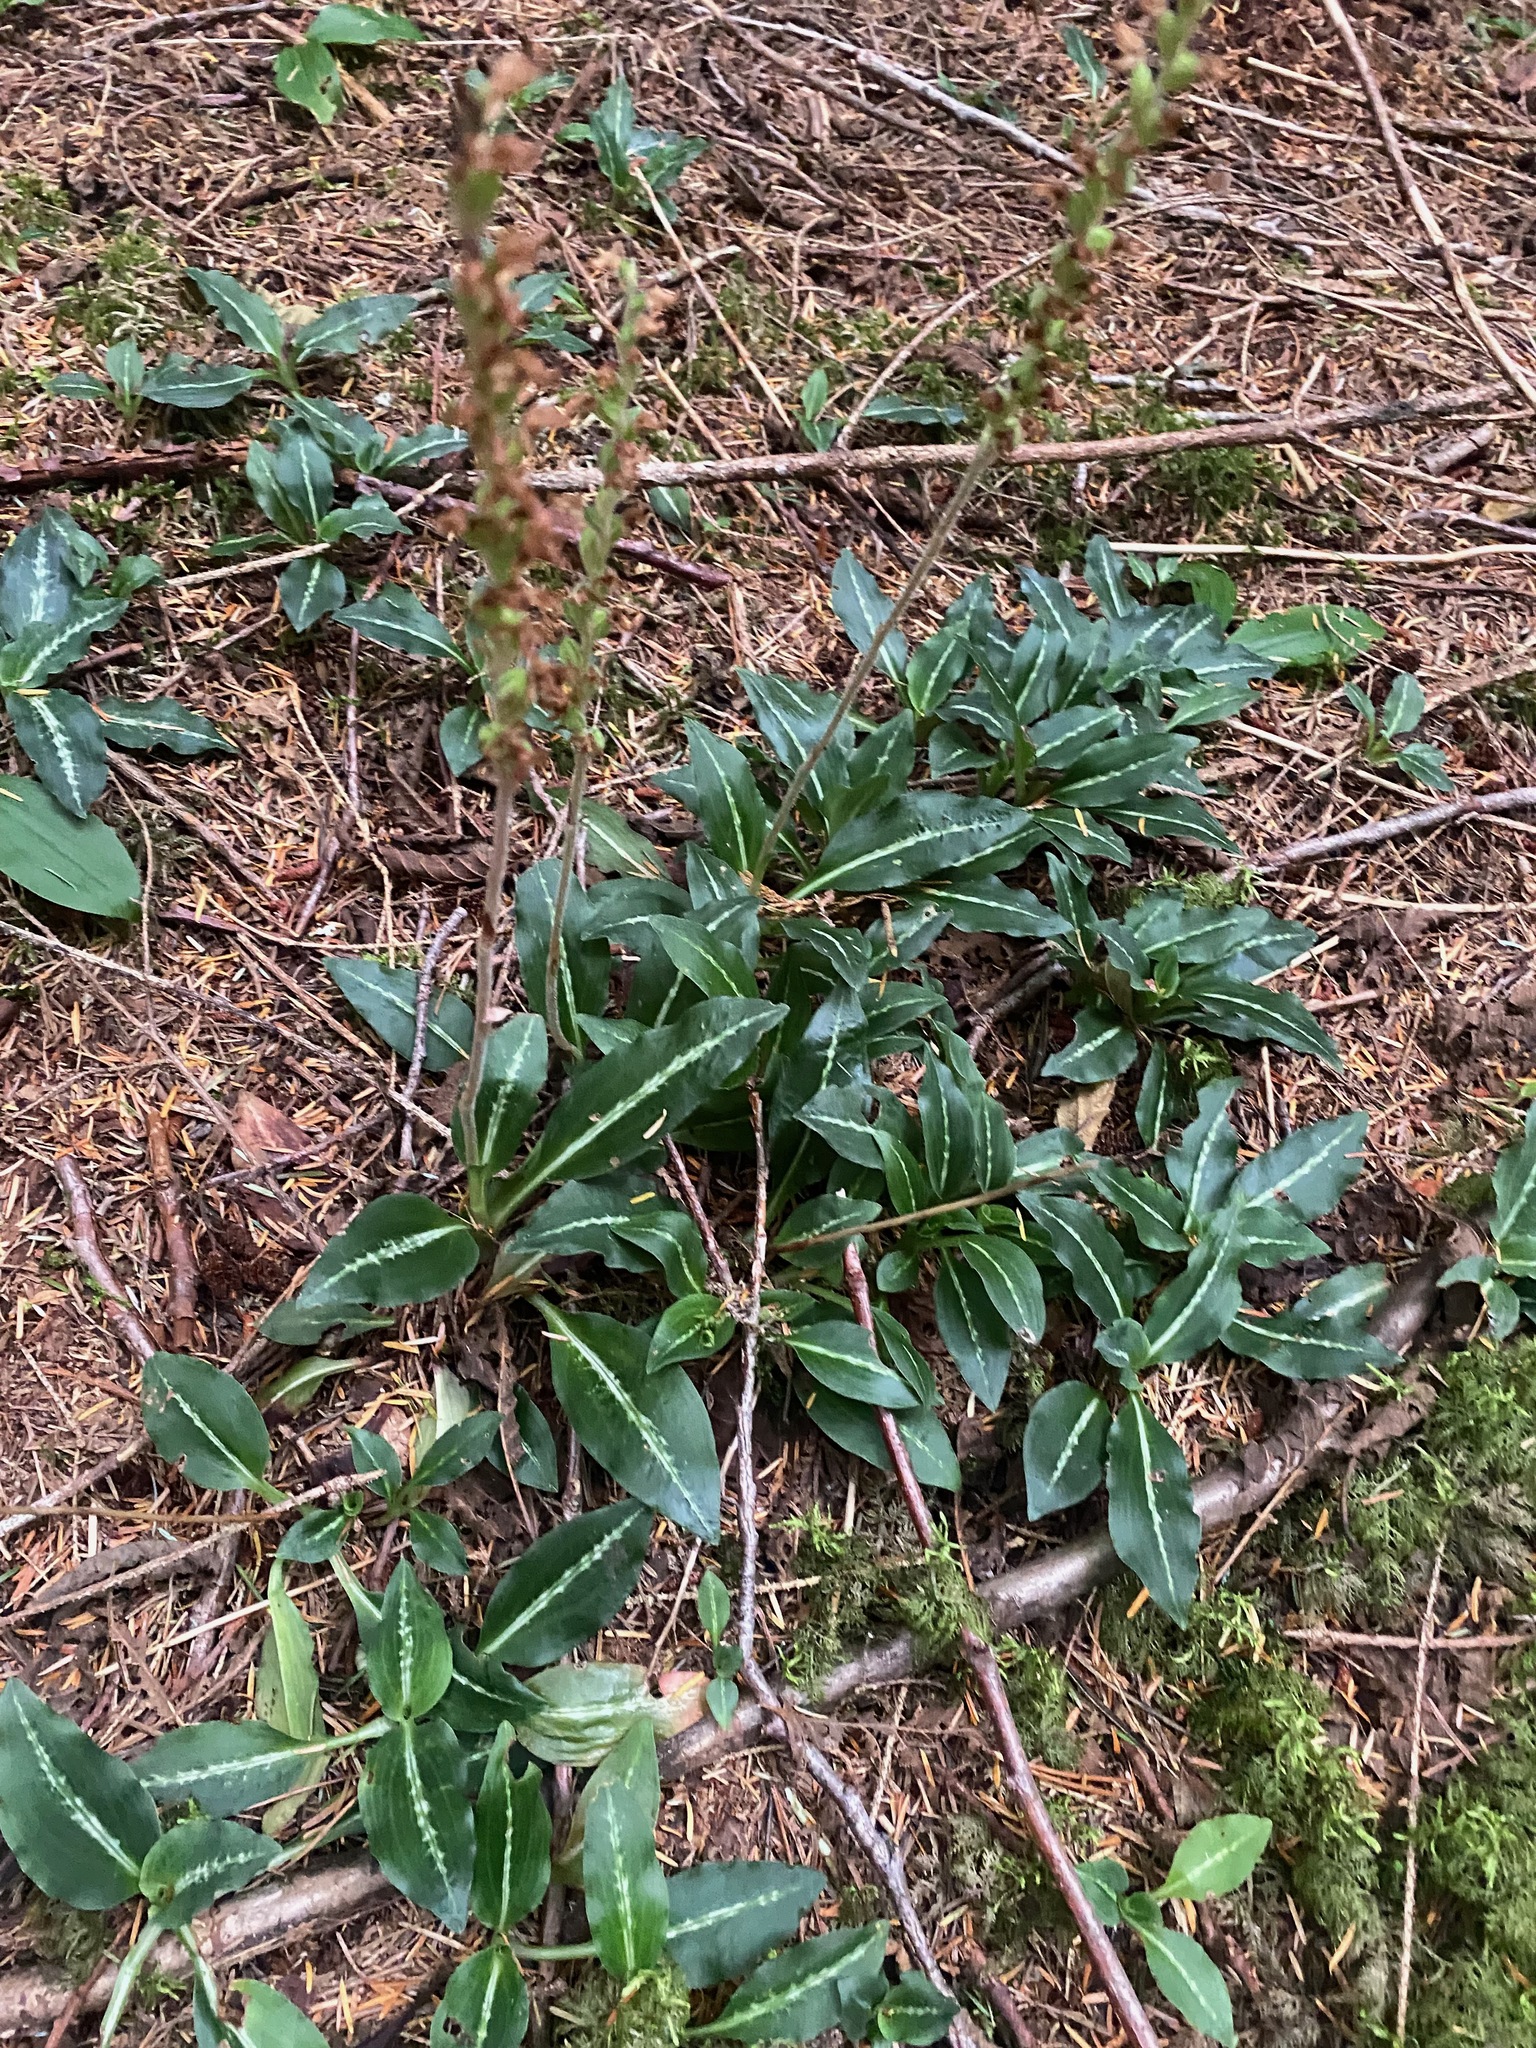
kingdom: Plantae
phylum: Tracheophyta
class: Liliopsida
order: Asparagales
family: Orchidaceae
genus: Goodyera
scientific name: Goodyera oblongifolia
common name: Giant rattlesnake-plantain
